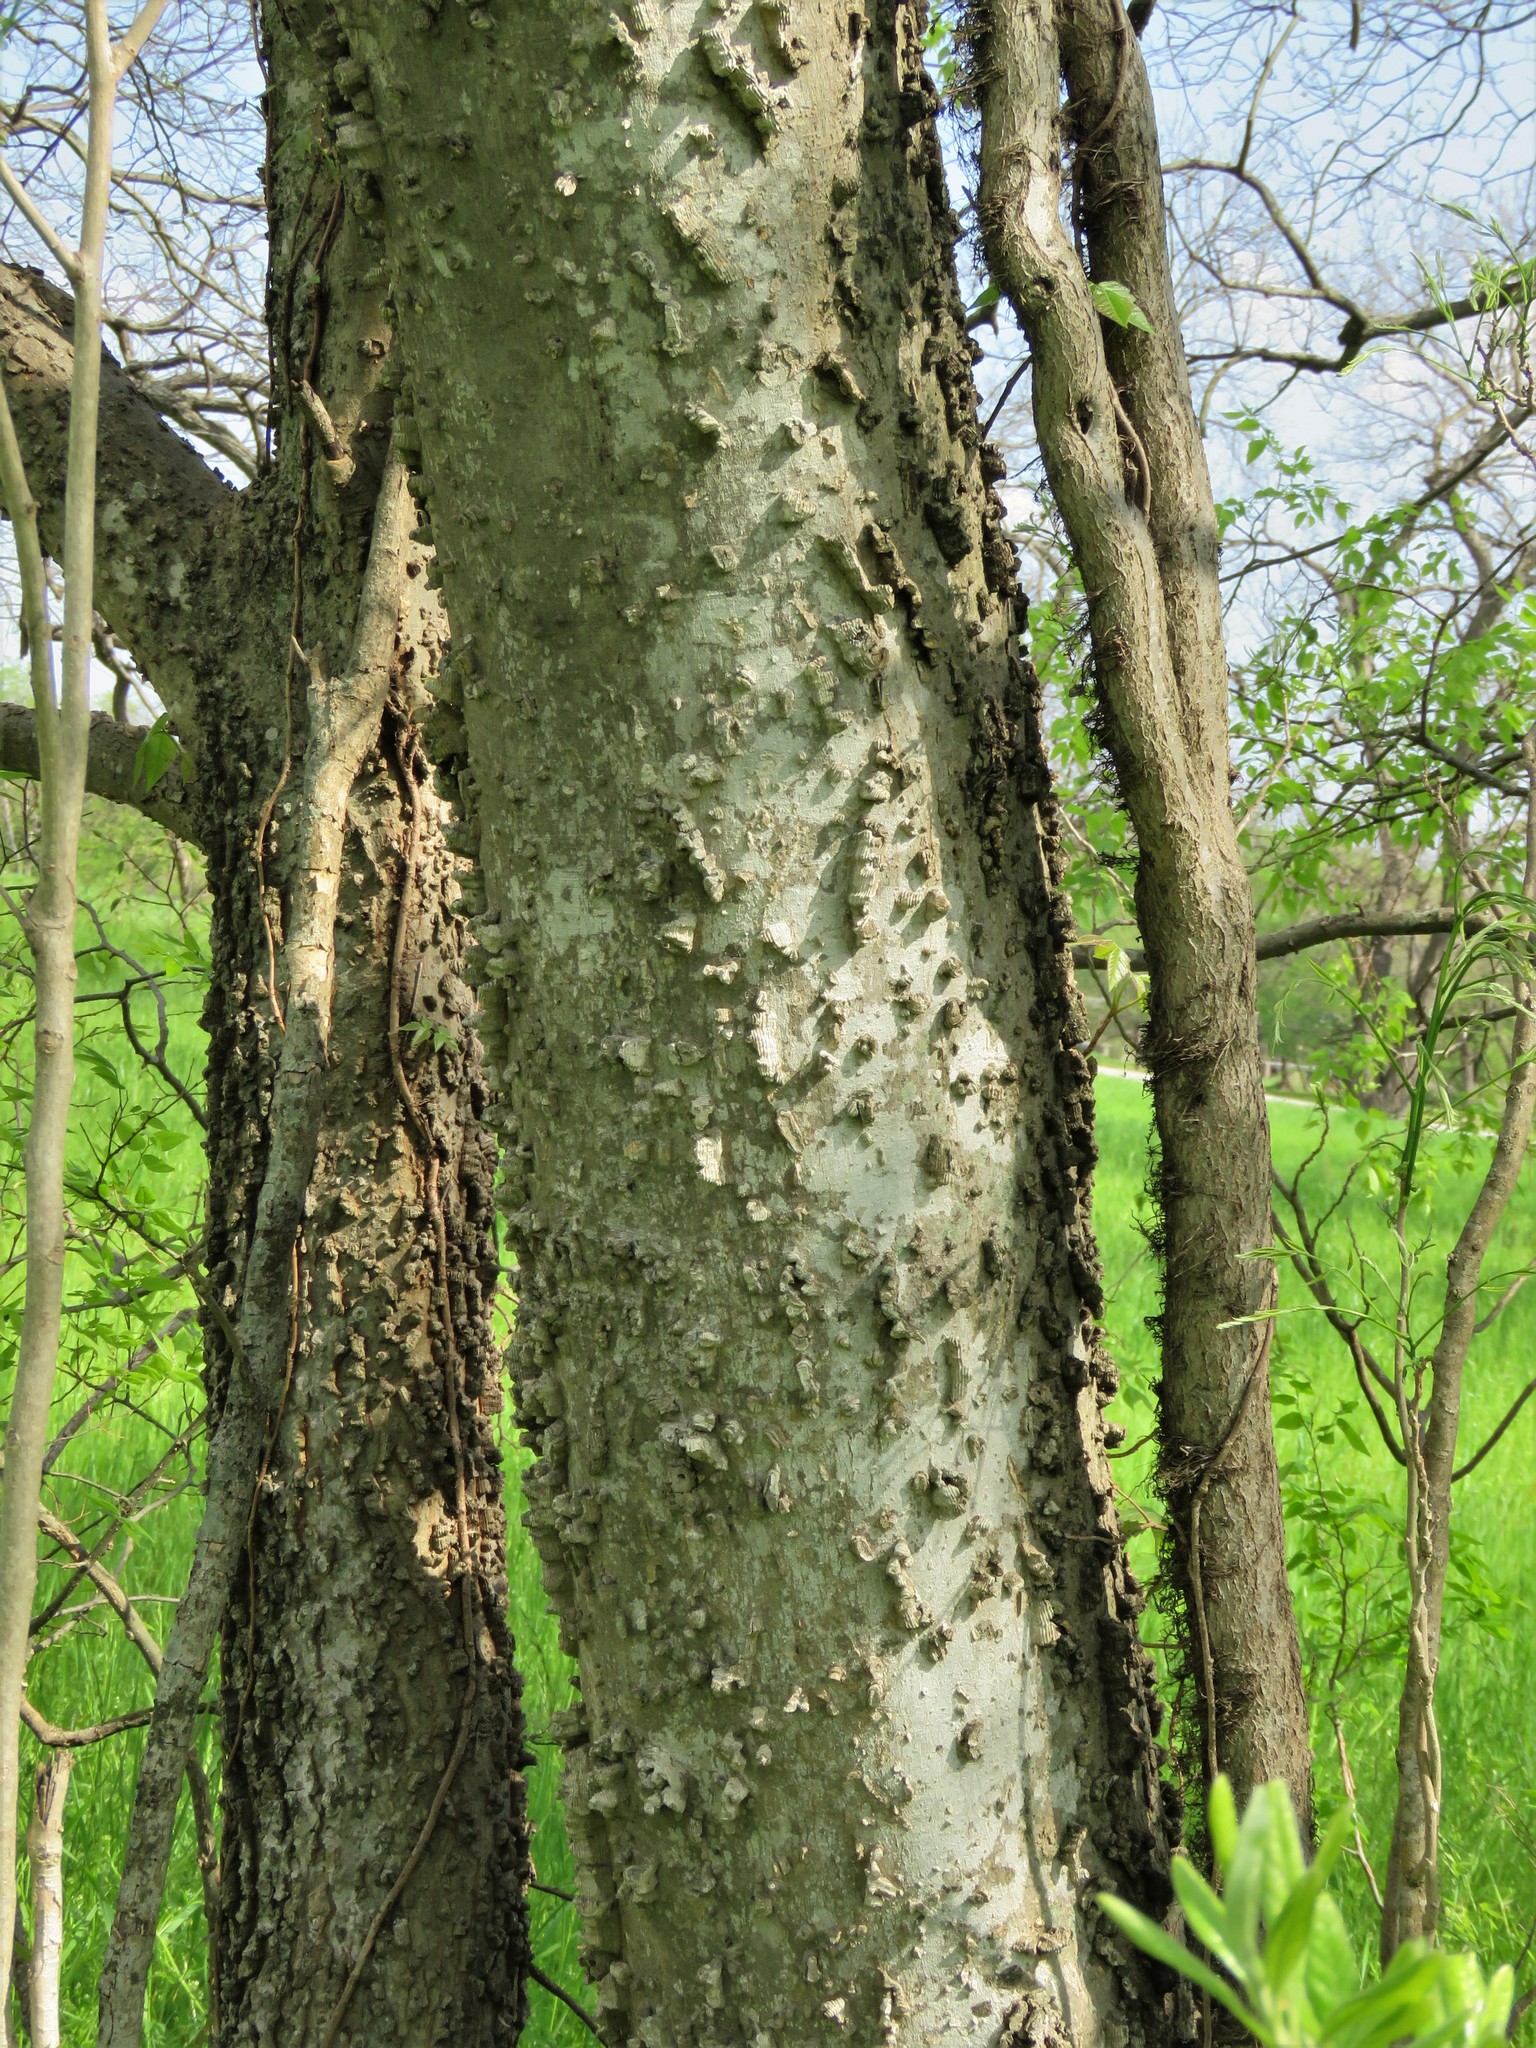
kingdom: Plantae
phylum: Tracheophyta
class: Magnoliopsida
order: Rosales
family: Cannabaceae
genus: Celtis
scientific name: Celtis laevigata
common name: Sugarberry
